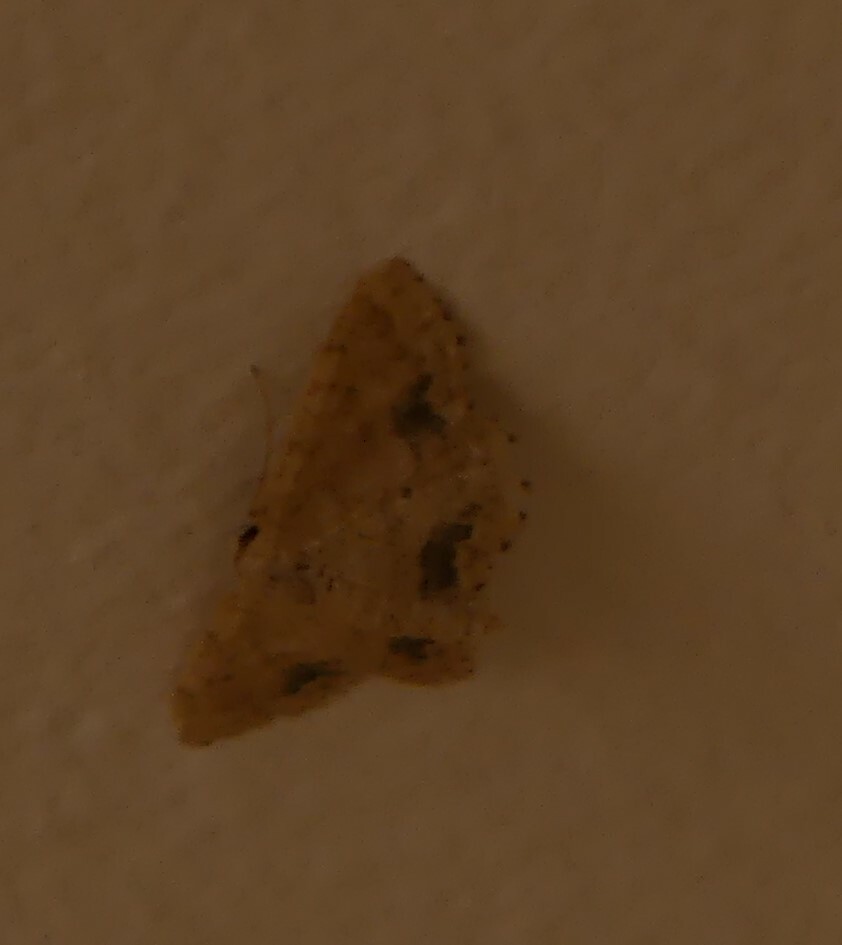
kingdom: Animalia
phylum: Arthropoda
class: Insecta
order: Lepidoptera
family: Geometridae
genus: Idaea
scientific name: Idaea belemiata
